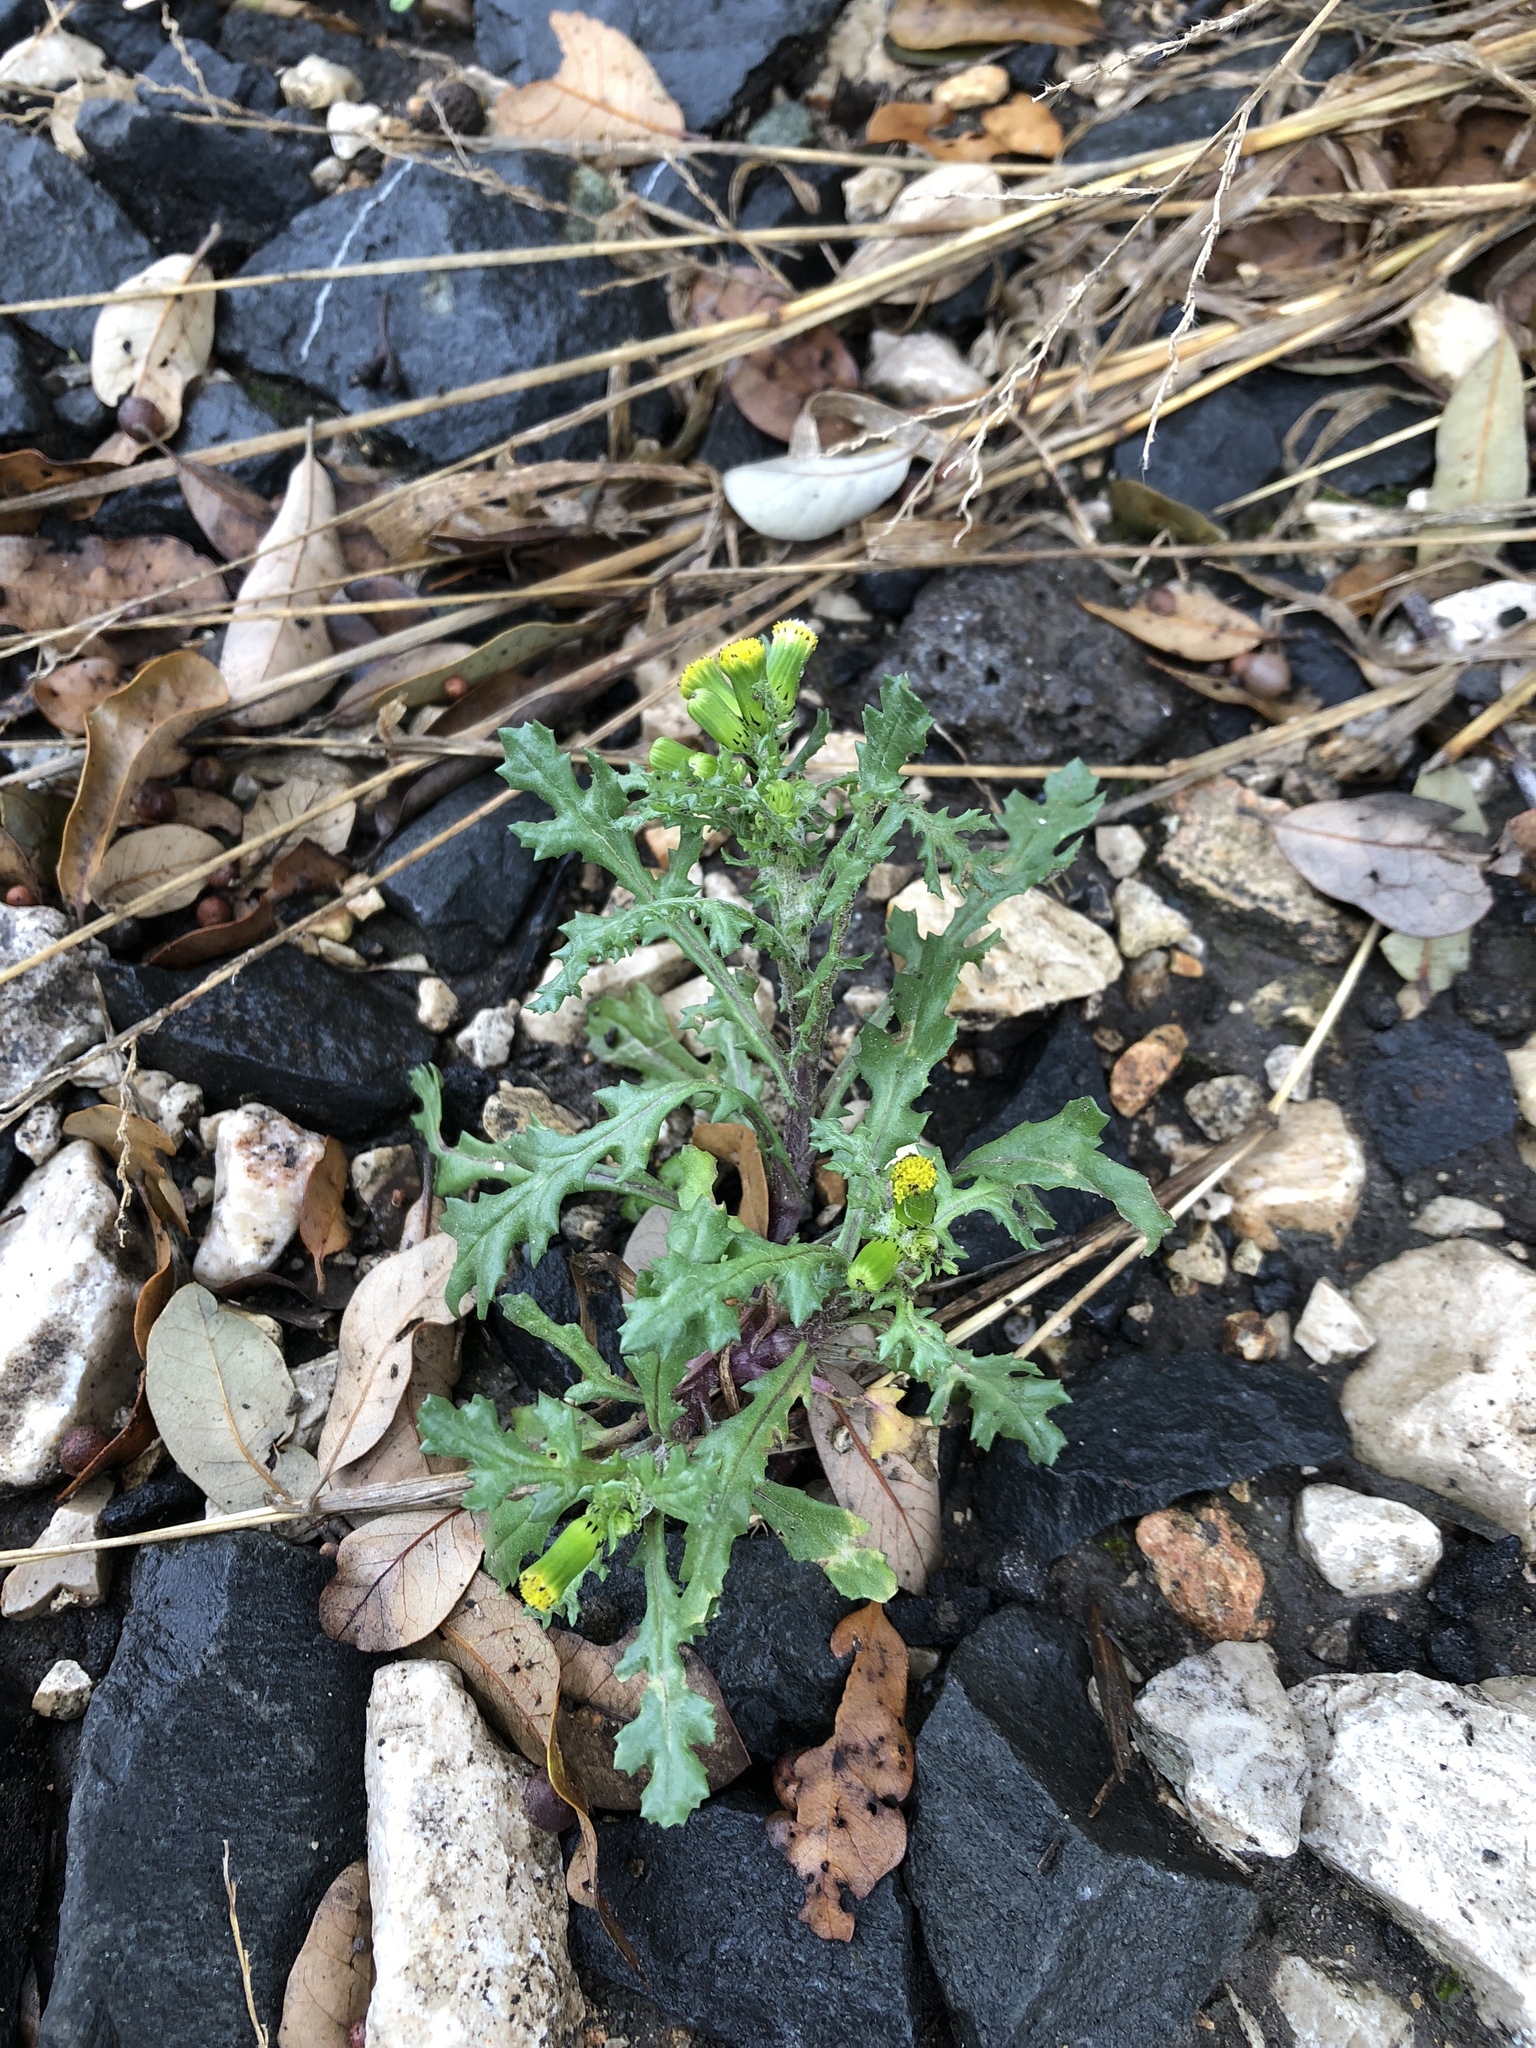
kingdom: Plantae
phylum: Tracheophyta
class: Magnoliopsida
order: Asterales
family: Asteraceae
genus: Senecio
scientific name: Senecio vulgaris
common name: Old-man-in-the-spring
